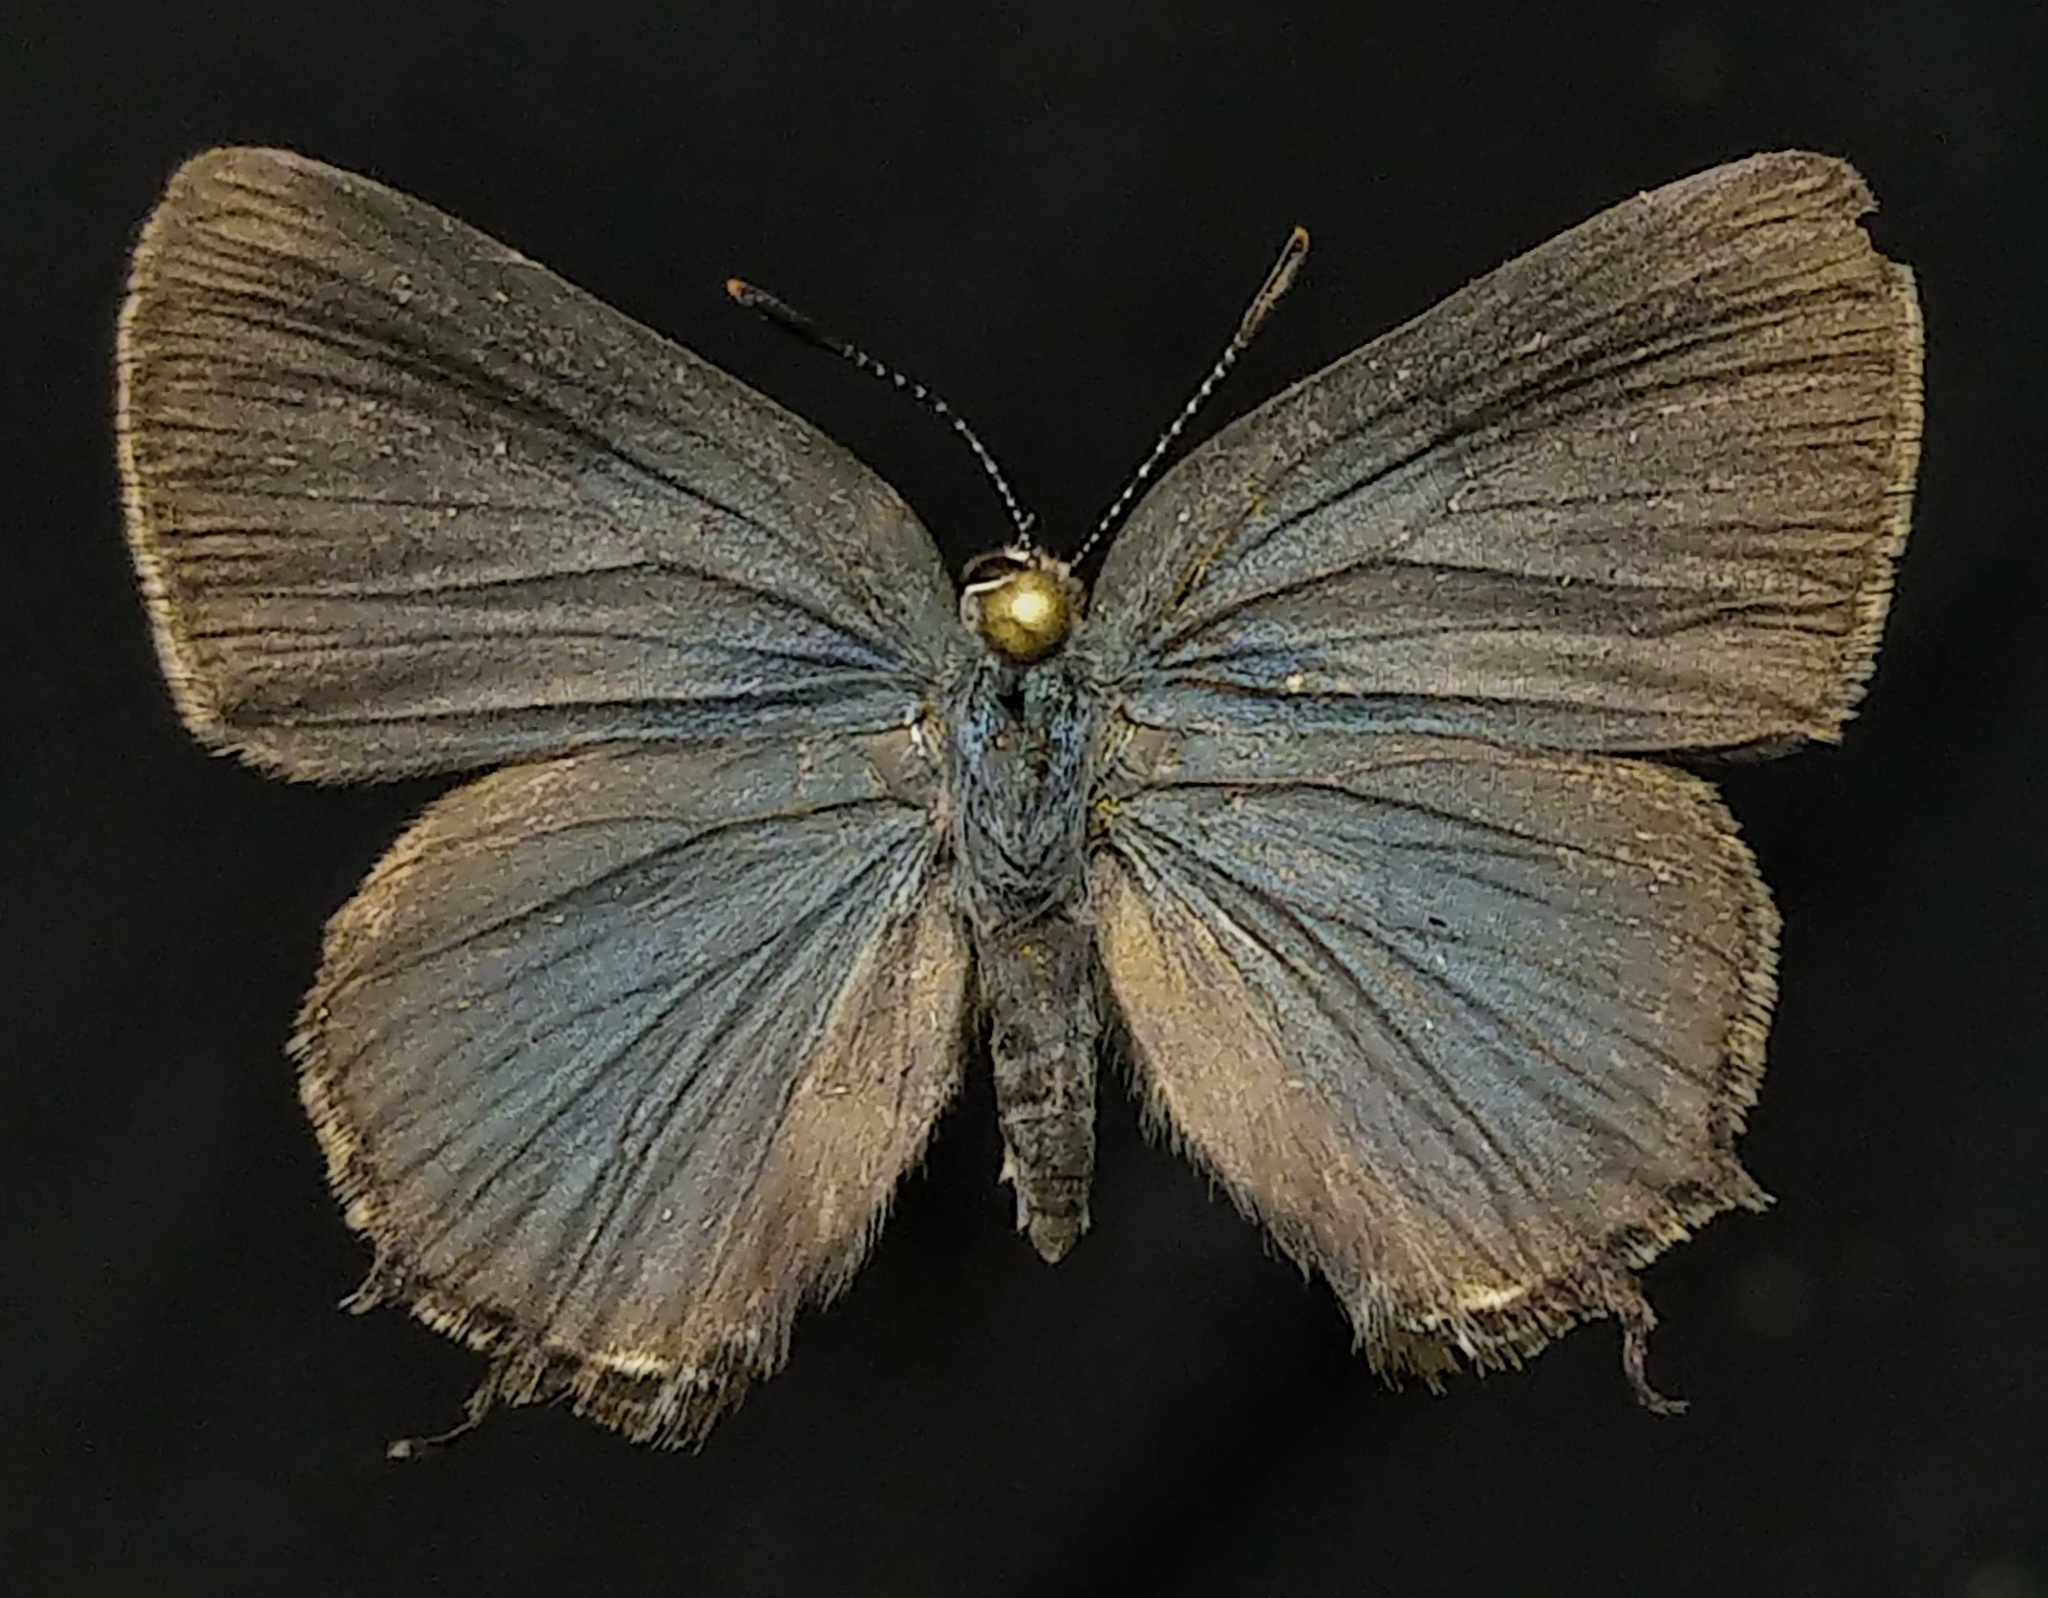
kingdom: Animalia
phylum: Arthropoda
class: Insecta
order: Lepidoptera
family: Lycaenidae
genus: Mitoura
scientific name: Mitoura spinetorum
